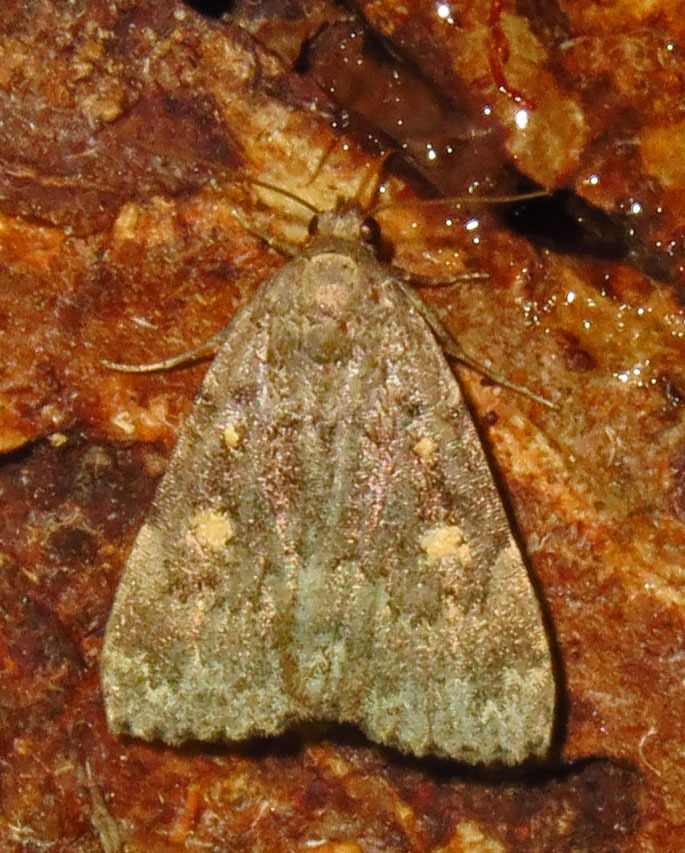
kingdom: Animalia
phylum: Arthropoda
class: Insecta
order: Lepidoptera
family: Erebidae
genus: Idia
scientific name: Idia aemula
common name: Common idia moth
